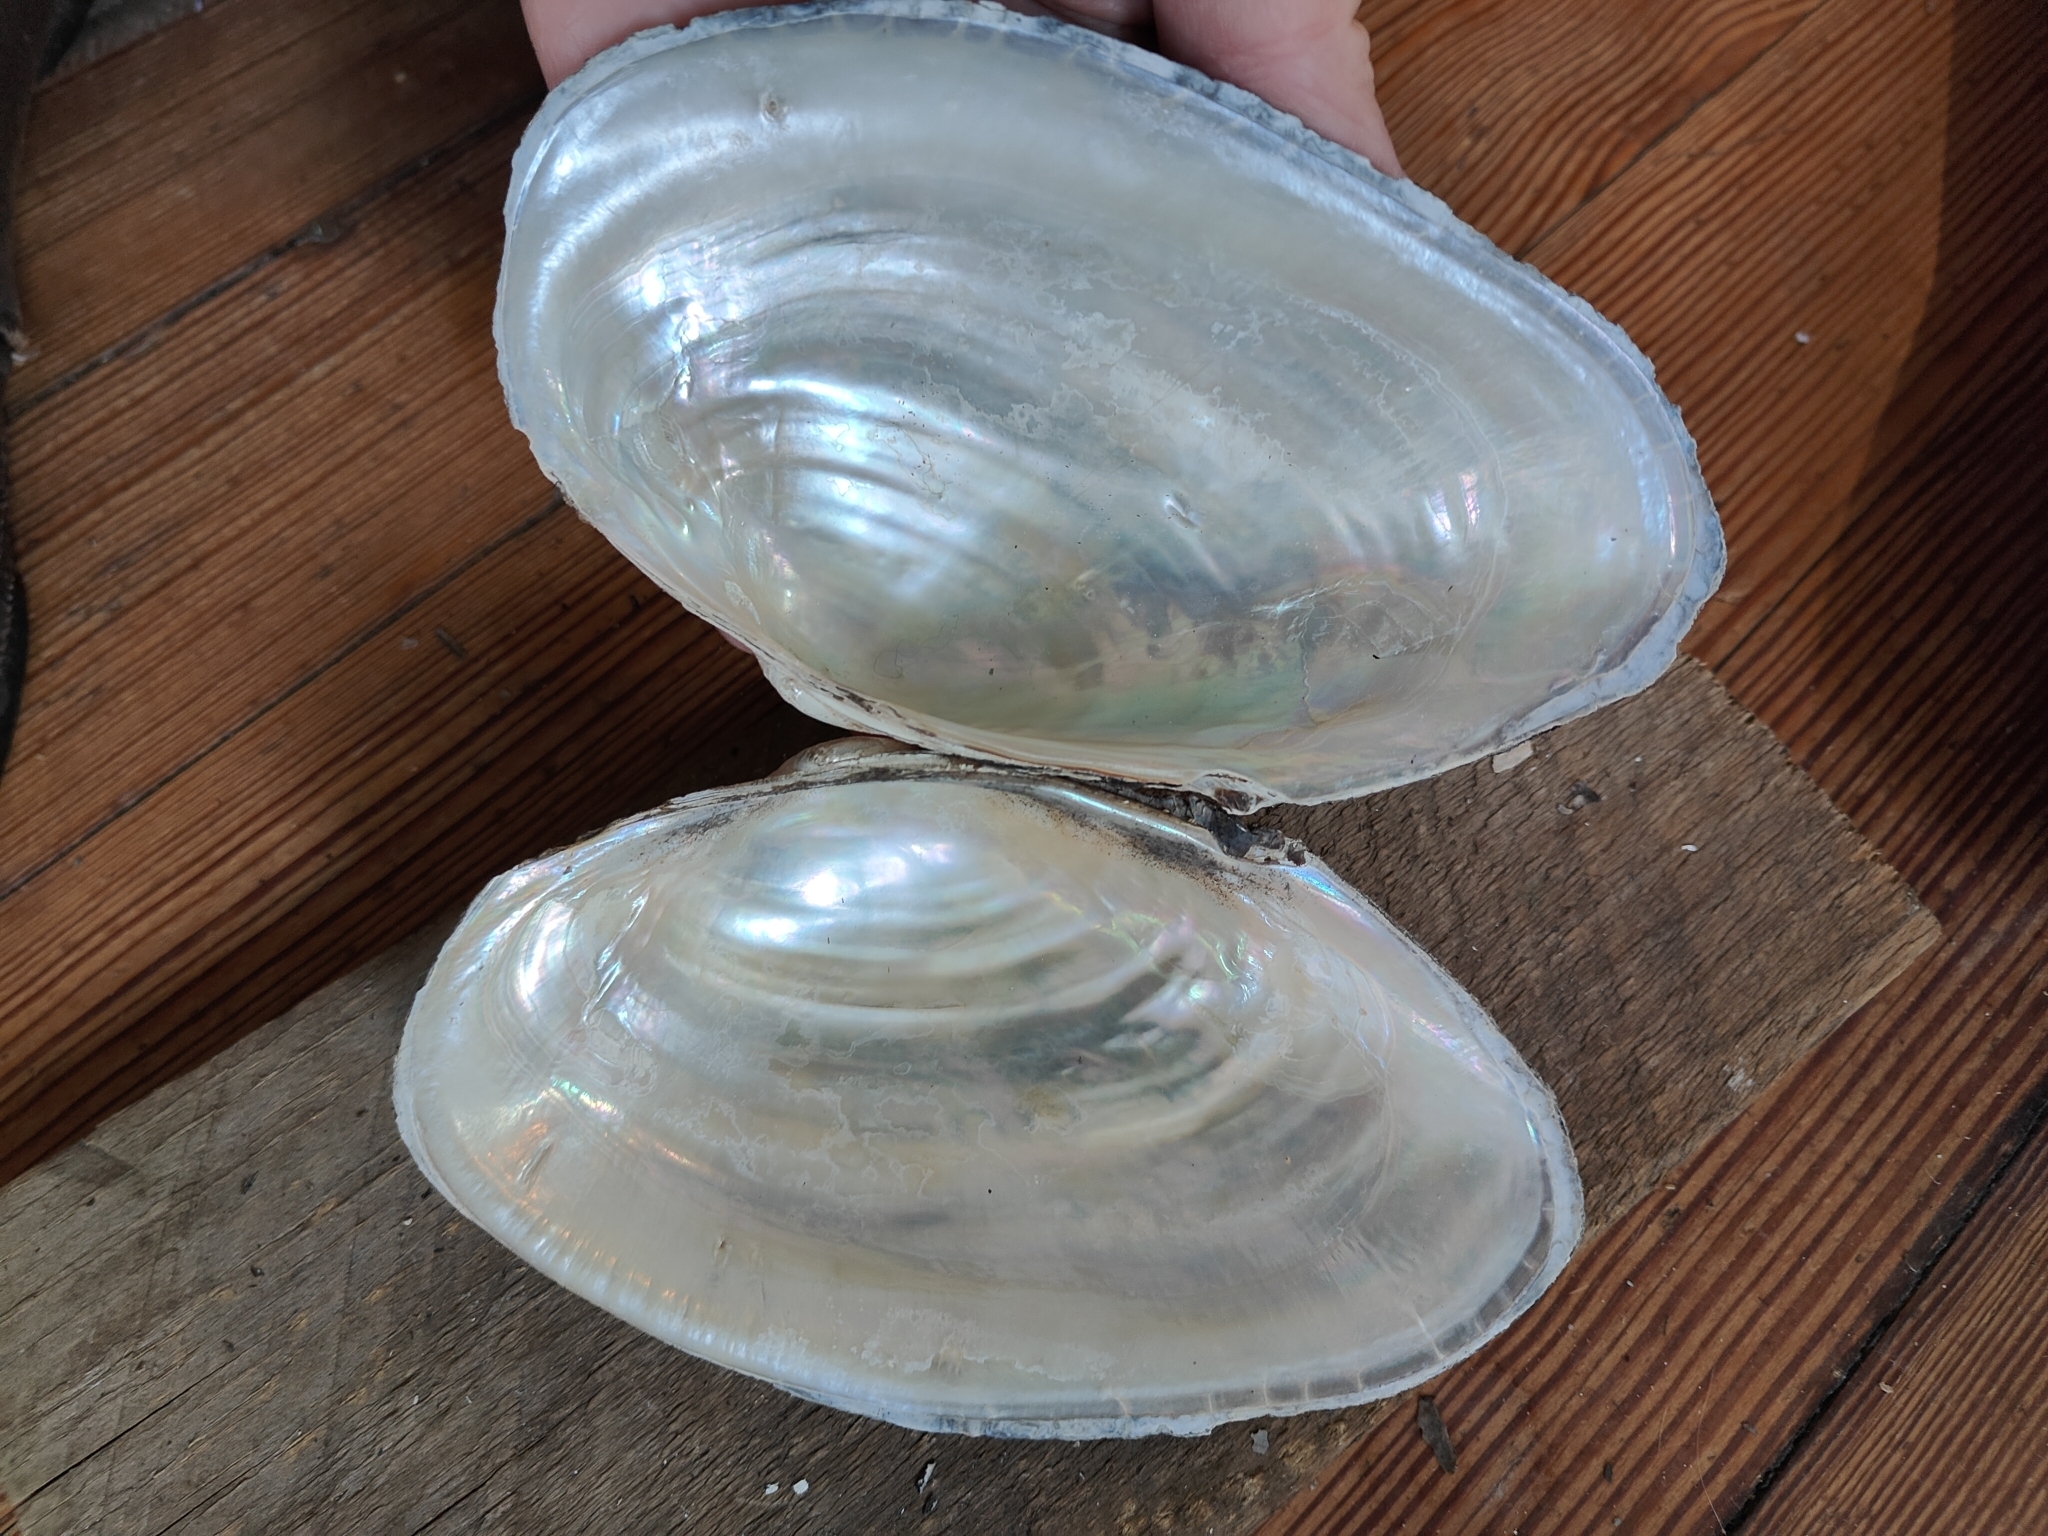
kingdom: Animalia
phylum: Mollusca
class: Bivalvia
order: Unionida
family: Unionidae
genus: Pyganodon
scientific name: Pyganodon grandis
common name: Giant floater
